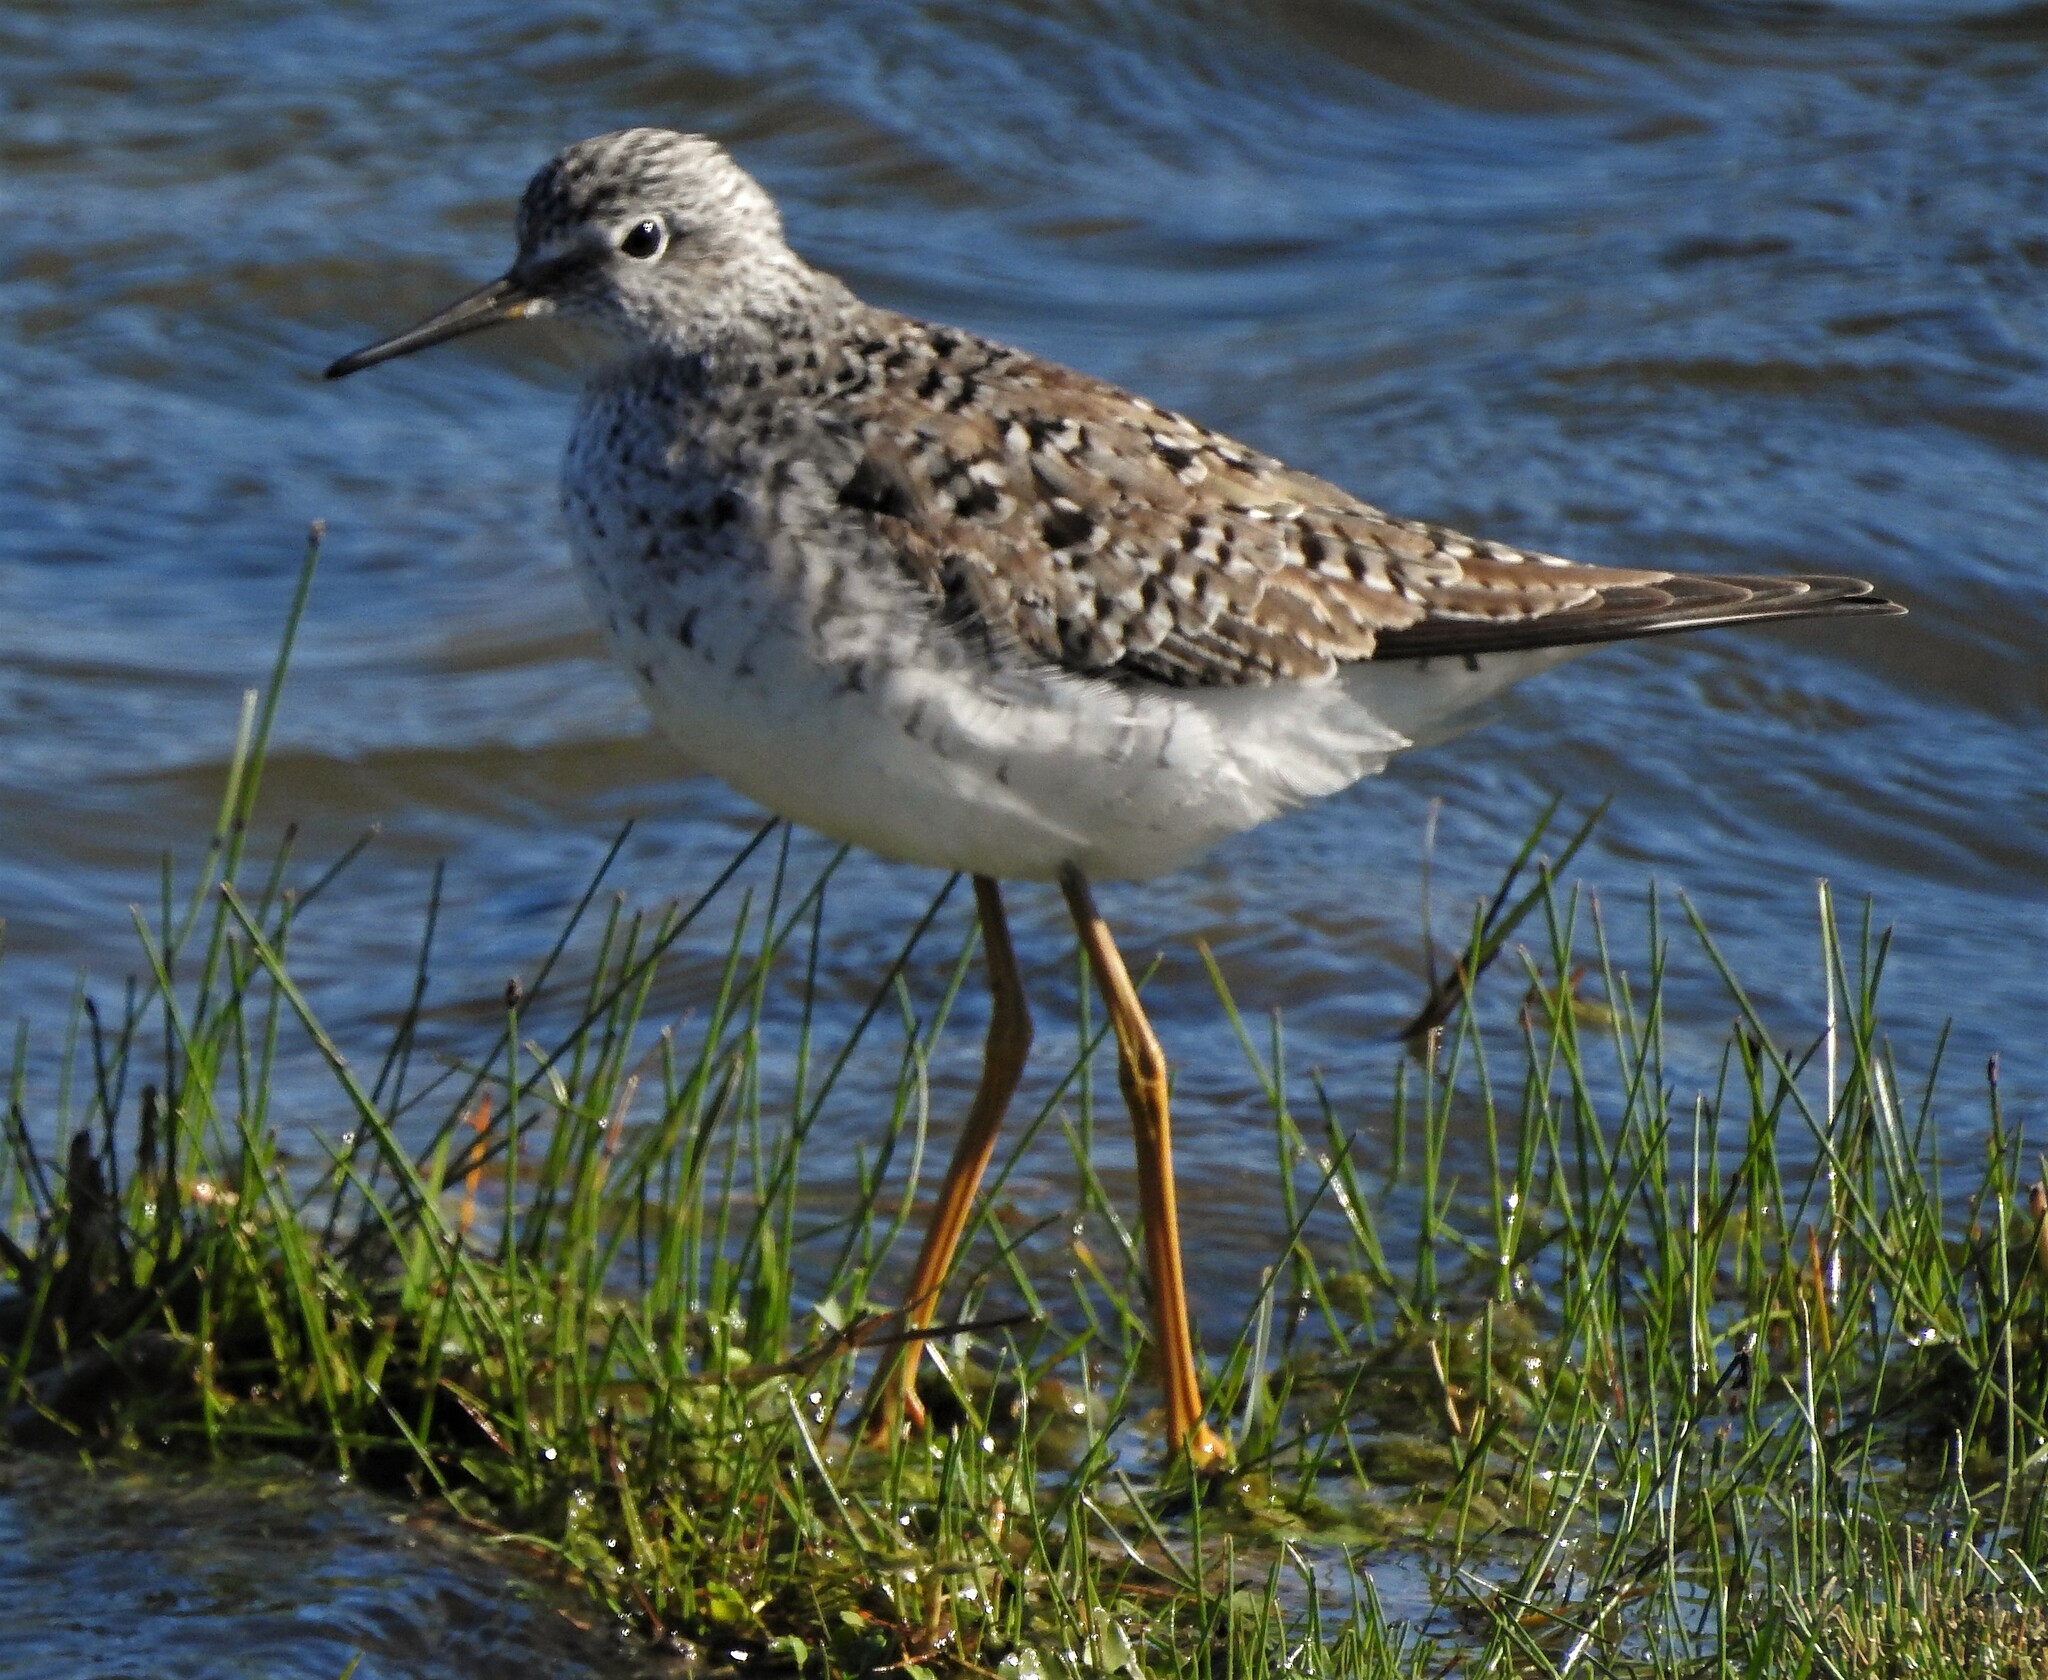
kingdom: Animalia
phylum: Chordata
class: Aves
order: Charadriiformes
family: Scolopacidae
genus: Tringa
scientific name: Tringa flavipes
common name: Lesser yellowlegs
